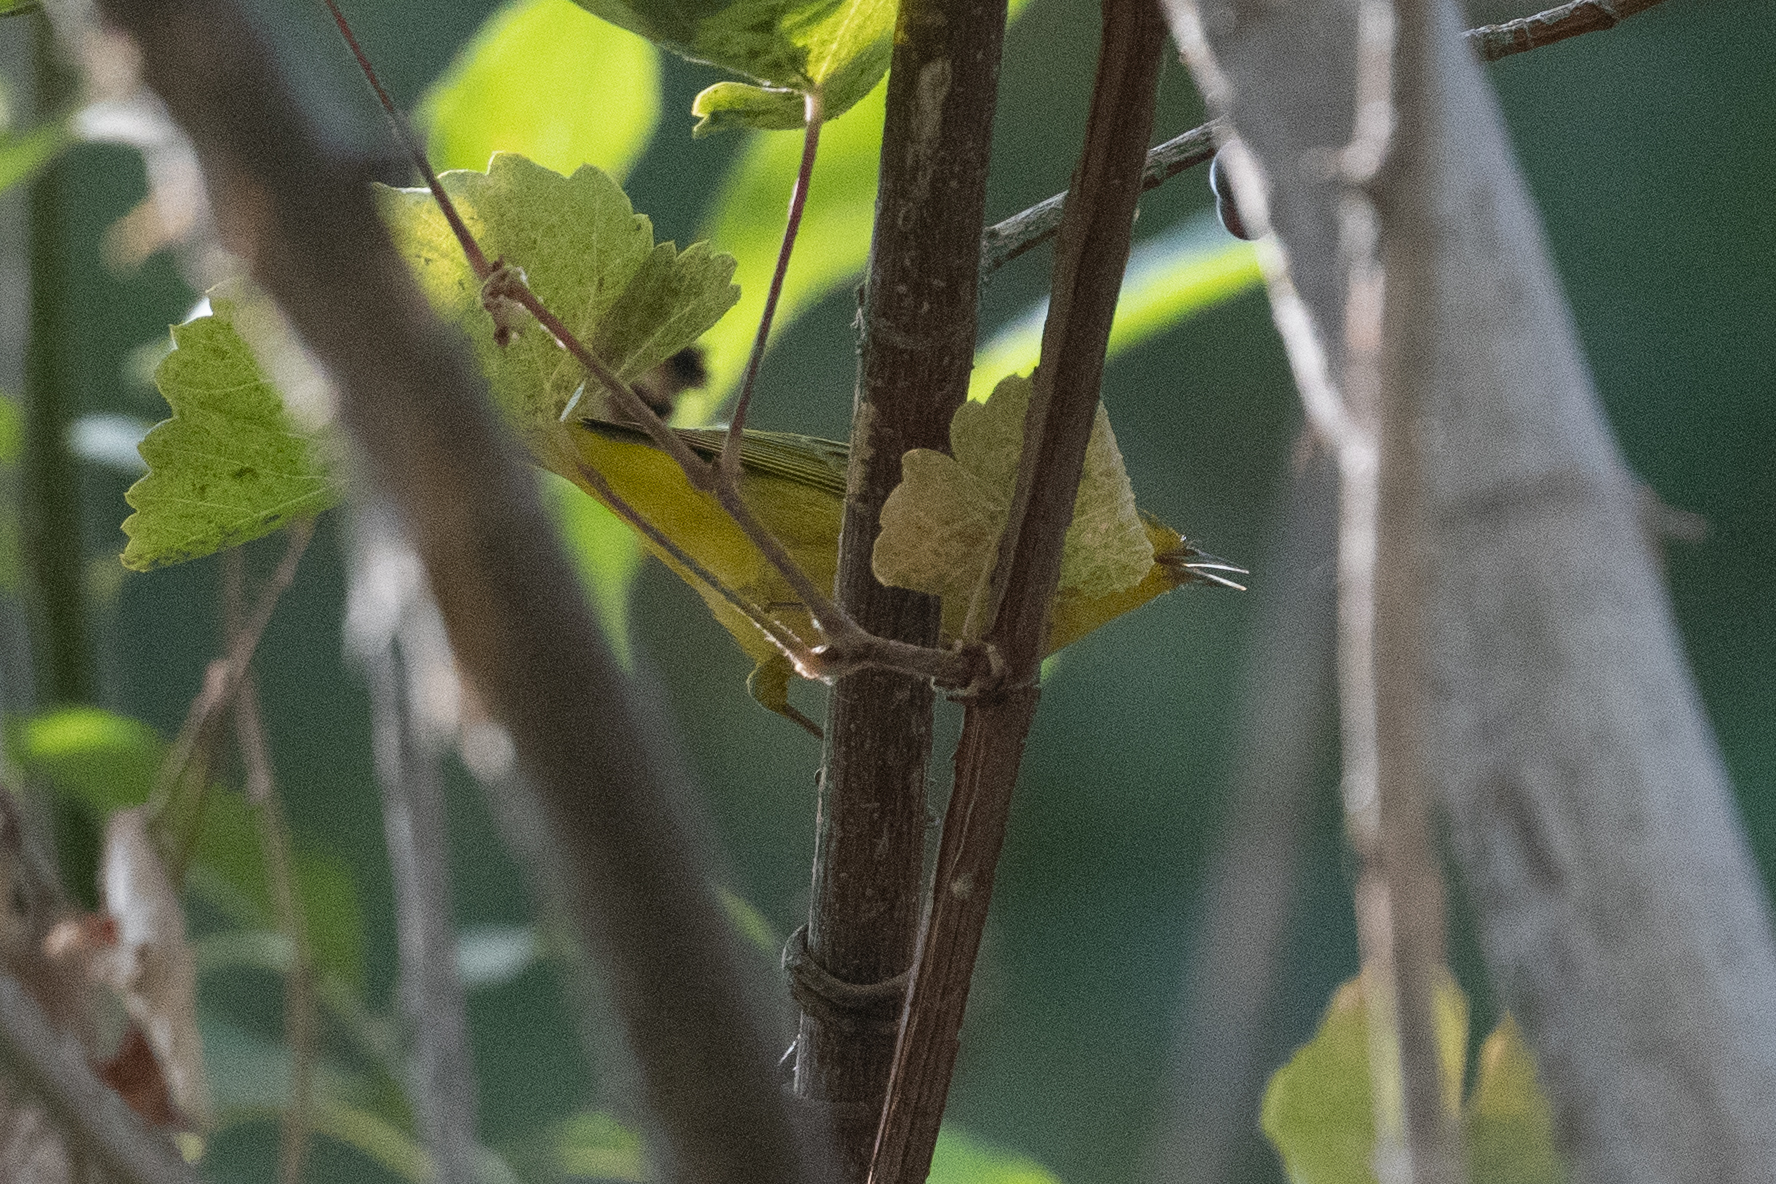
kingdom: Animalia
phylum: Chordata
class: Aves
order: Passeriformes
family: Parulidae
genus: Setophaga
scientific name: Setophaga petechia
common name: Yellow warbler
